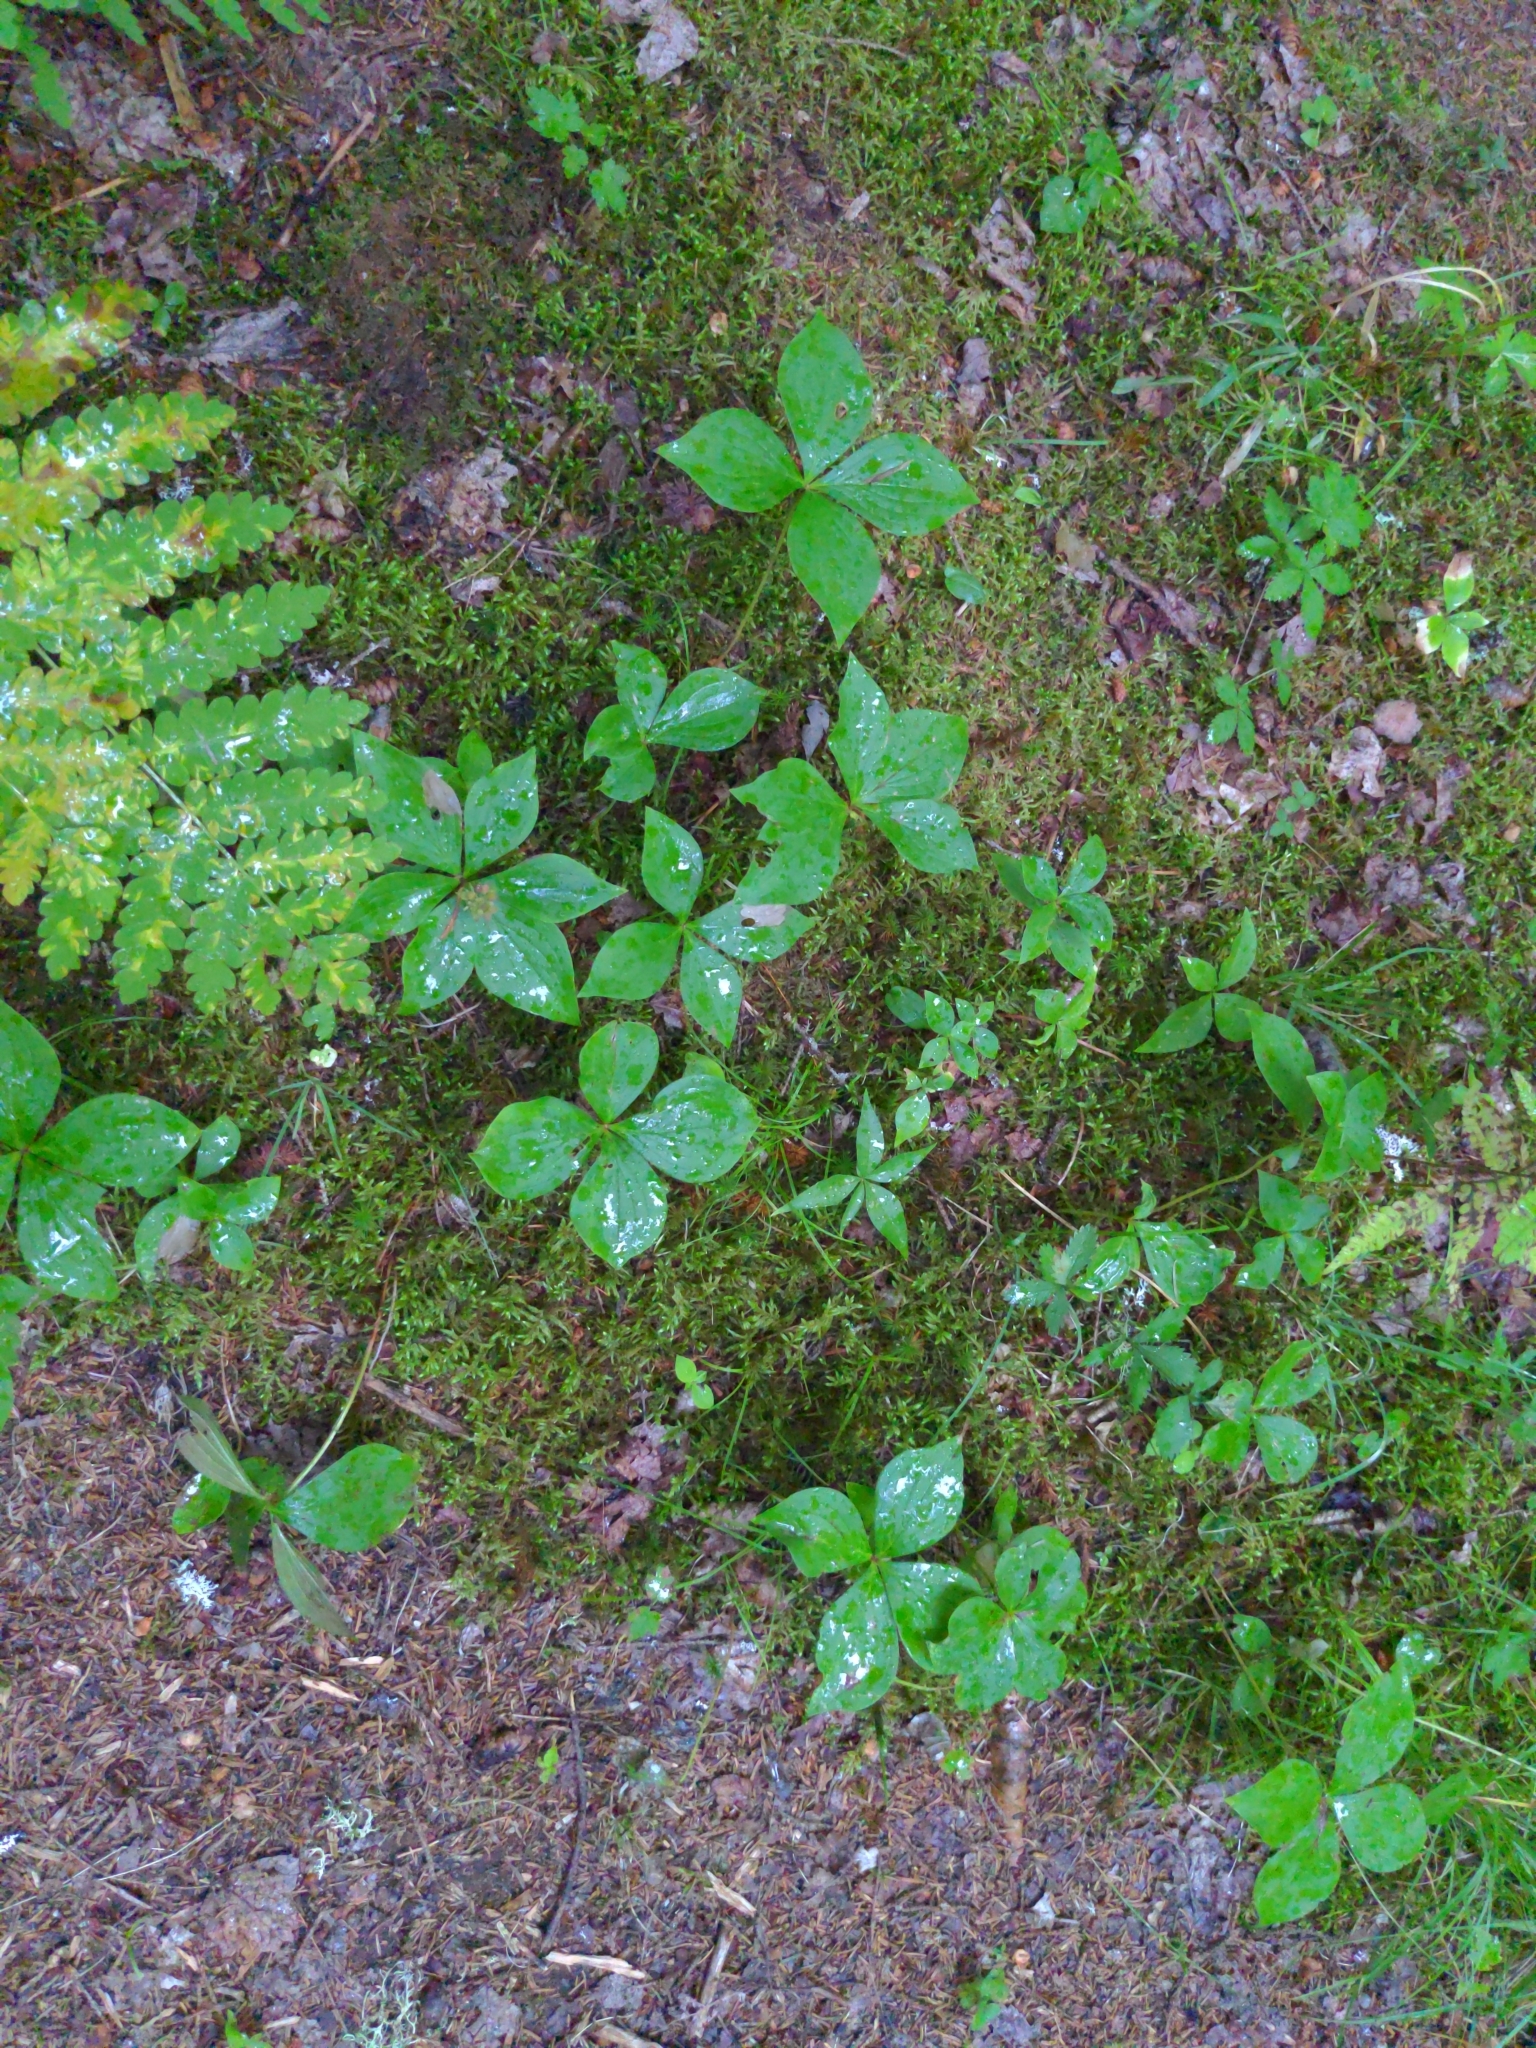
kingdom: Plantae
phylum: Tracheophyta
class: Magnoliopsida
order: Cornales
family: Cornaceae
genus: Cornus
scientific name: Cornus canadensis
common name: Creeping dogwood
